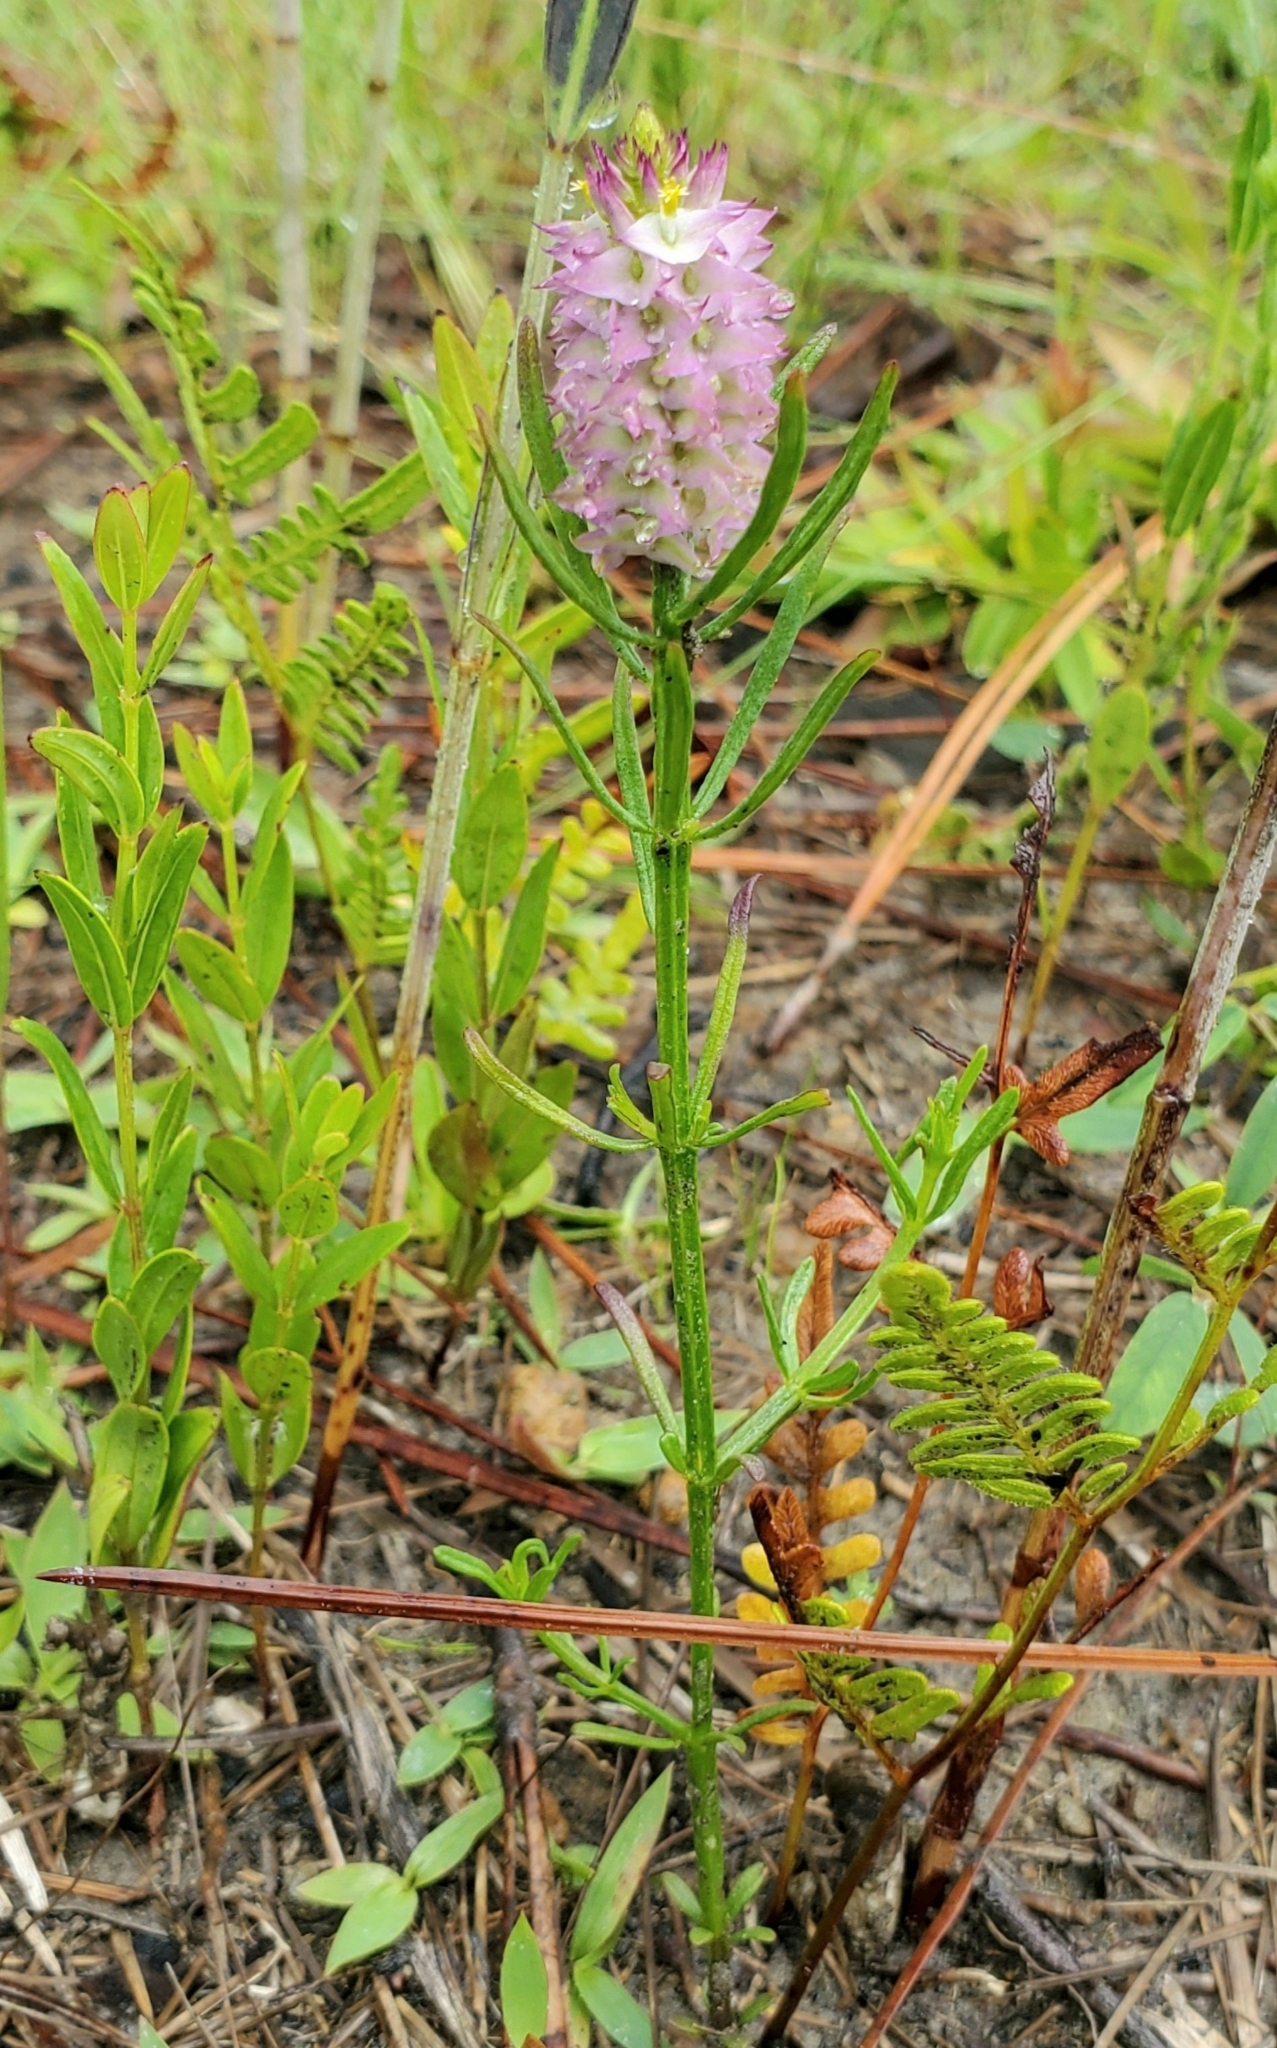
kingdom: Plantae
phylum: Tracheophyta
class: Magnoliopsida
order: Fabales
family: Polygalaceae
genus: Polygala
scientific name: Polygala cruciata
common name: Drumheads
